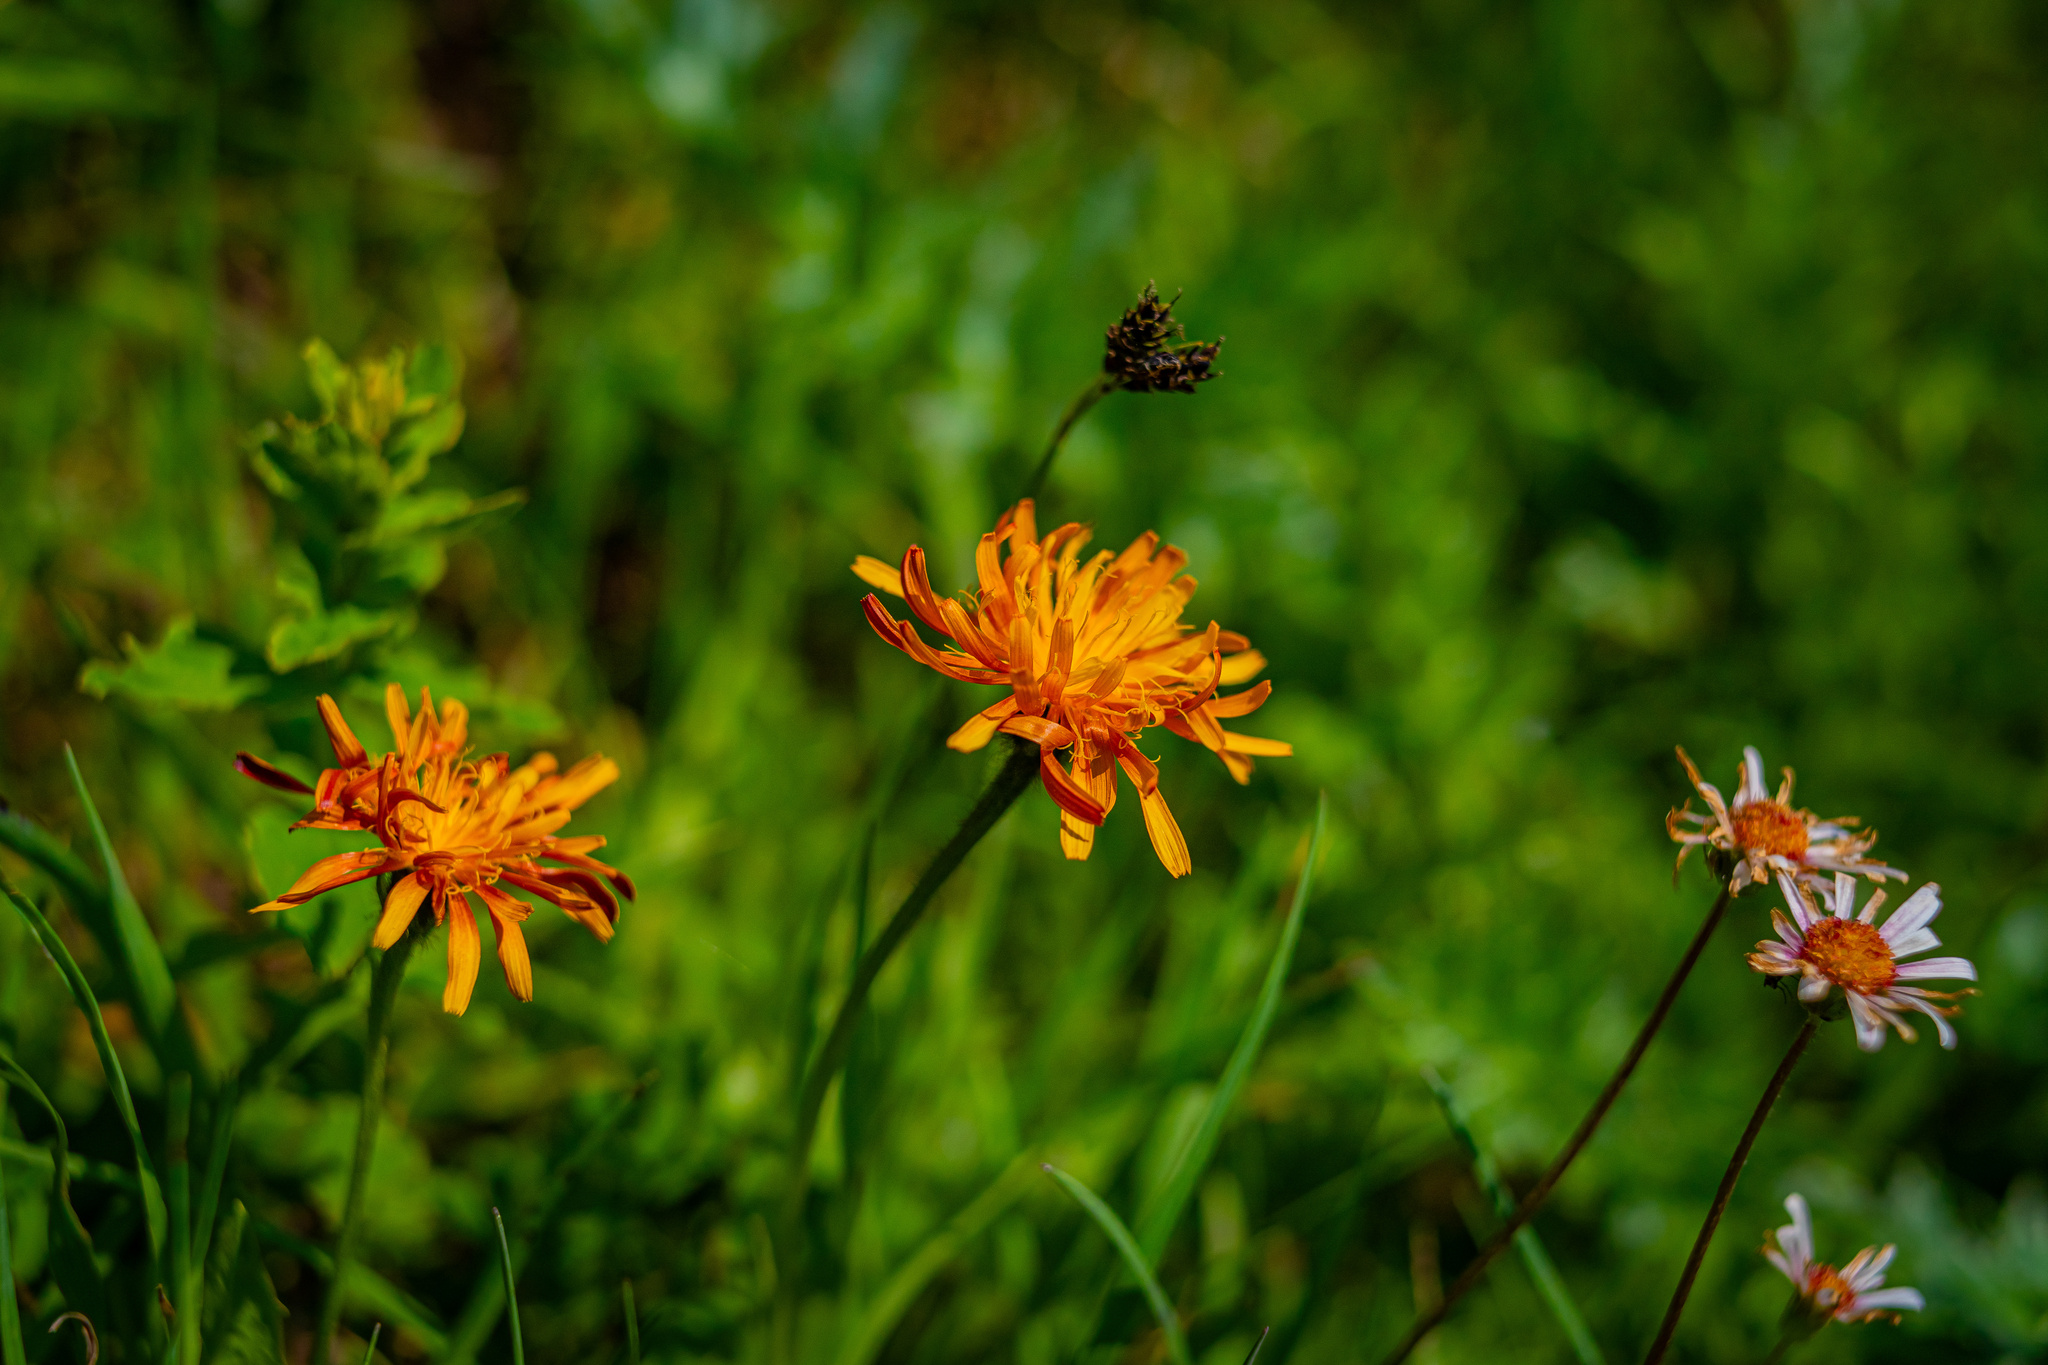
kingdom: Plantae
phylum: Tracheophyta
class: Magnoliopsida
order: Asterales
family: Asteraceae
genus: Crepis
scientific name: Crepis aurea
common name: Golden hawk's-beard
